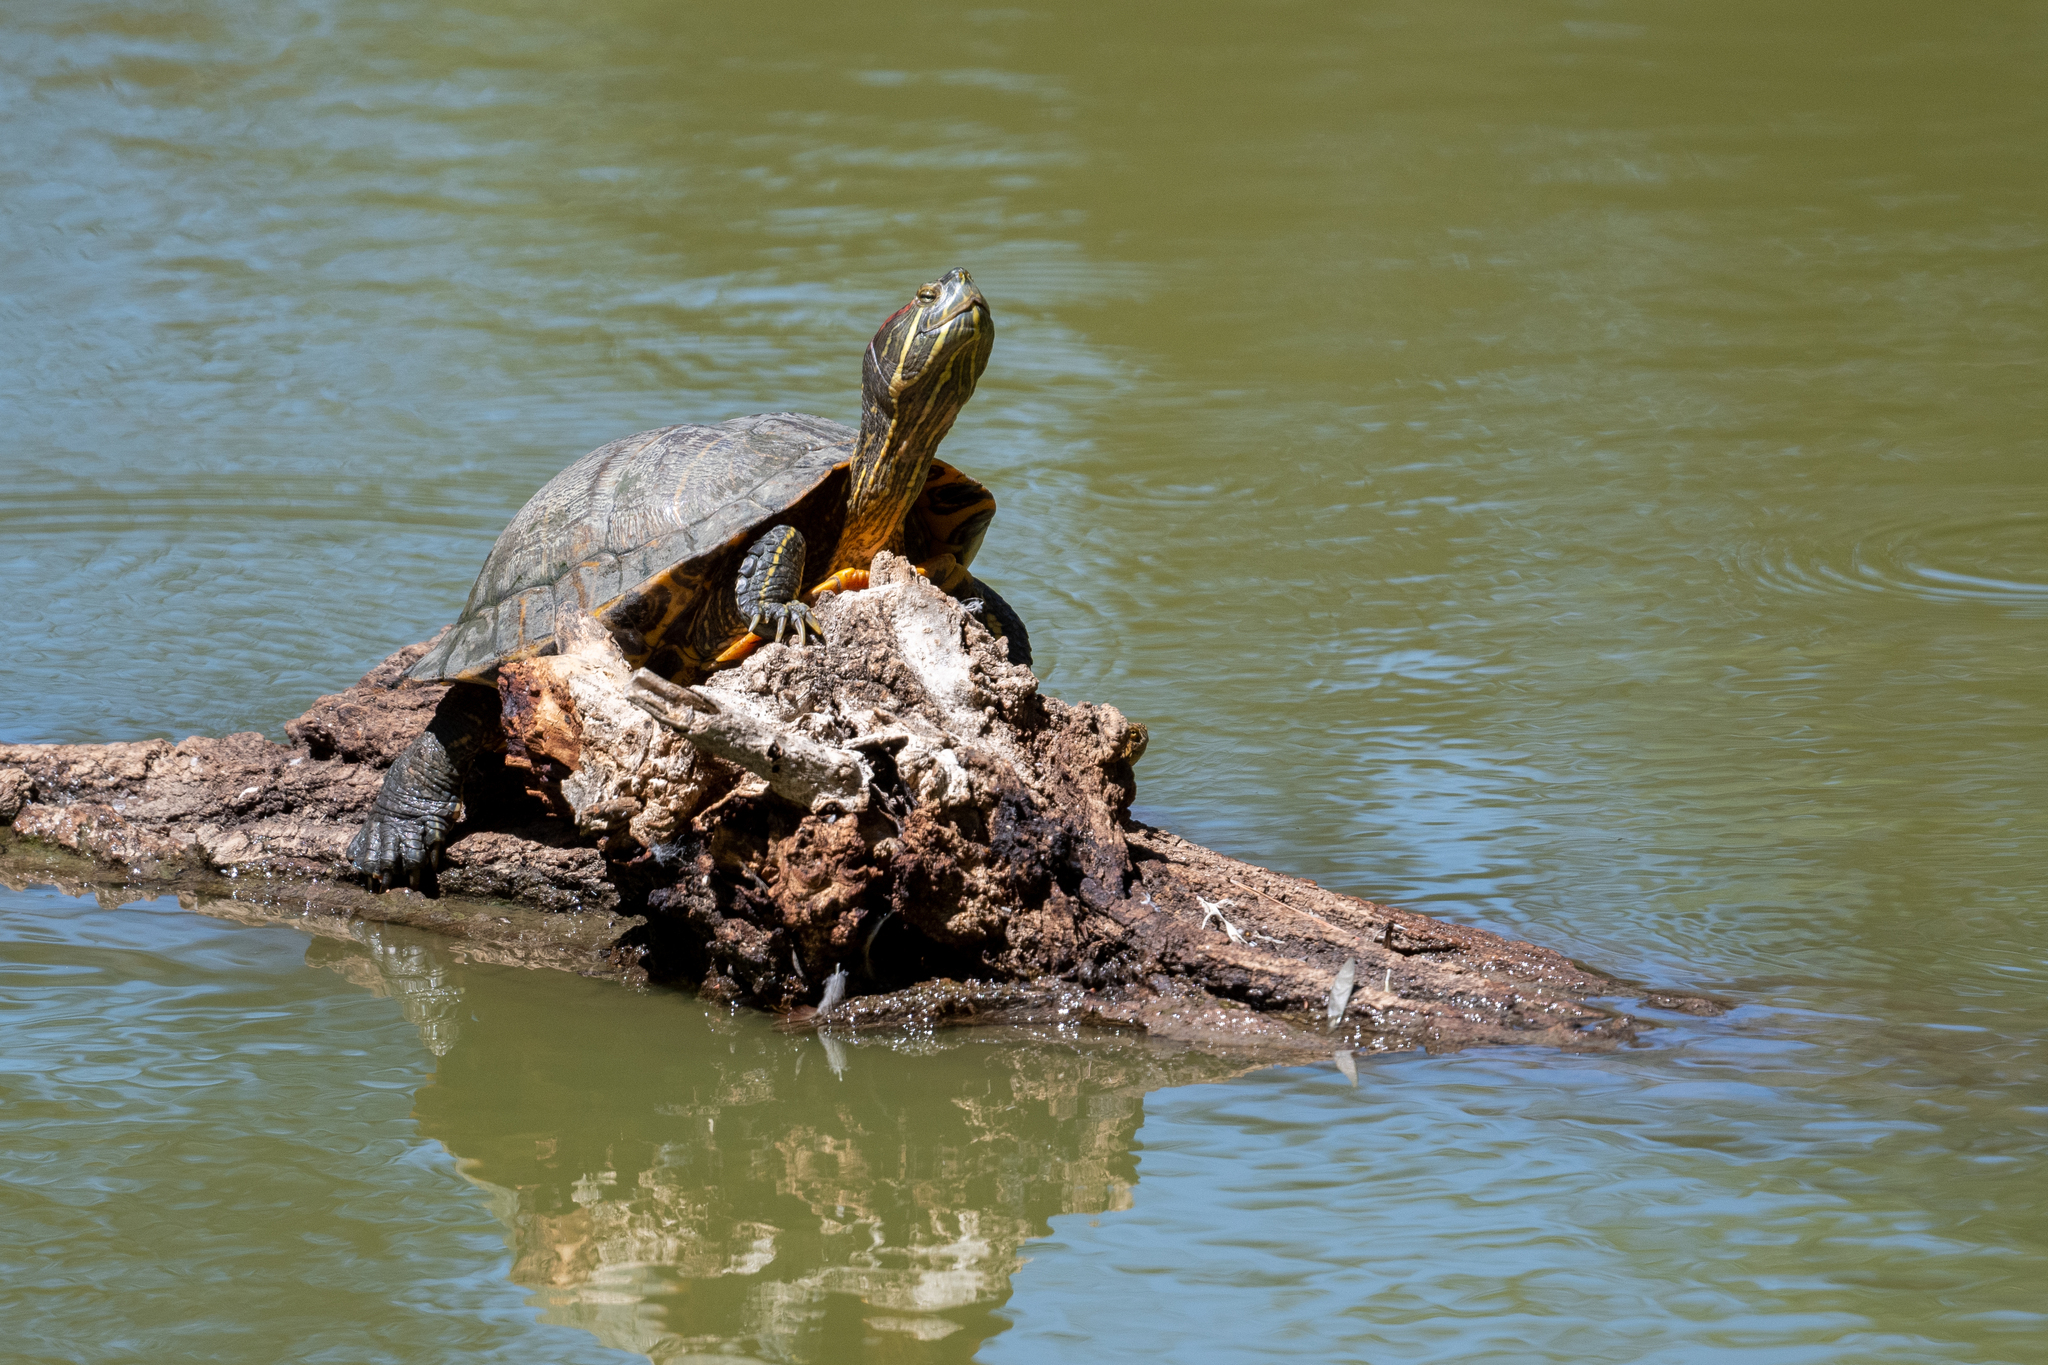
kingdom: Animalia
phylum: Chordata
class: Testudines
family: Emydidae
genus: Trachemys
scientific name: Trachemys scripta
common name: Slider
